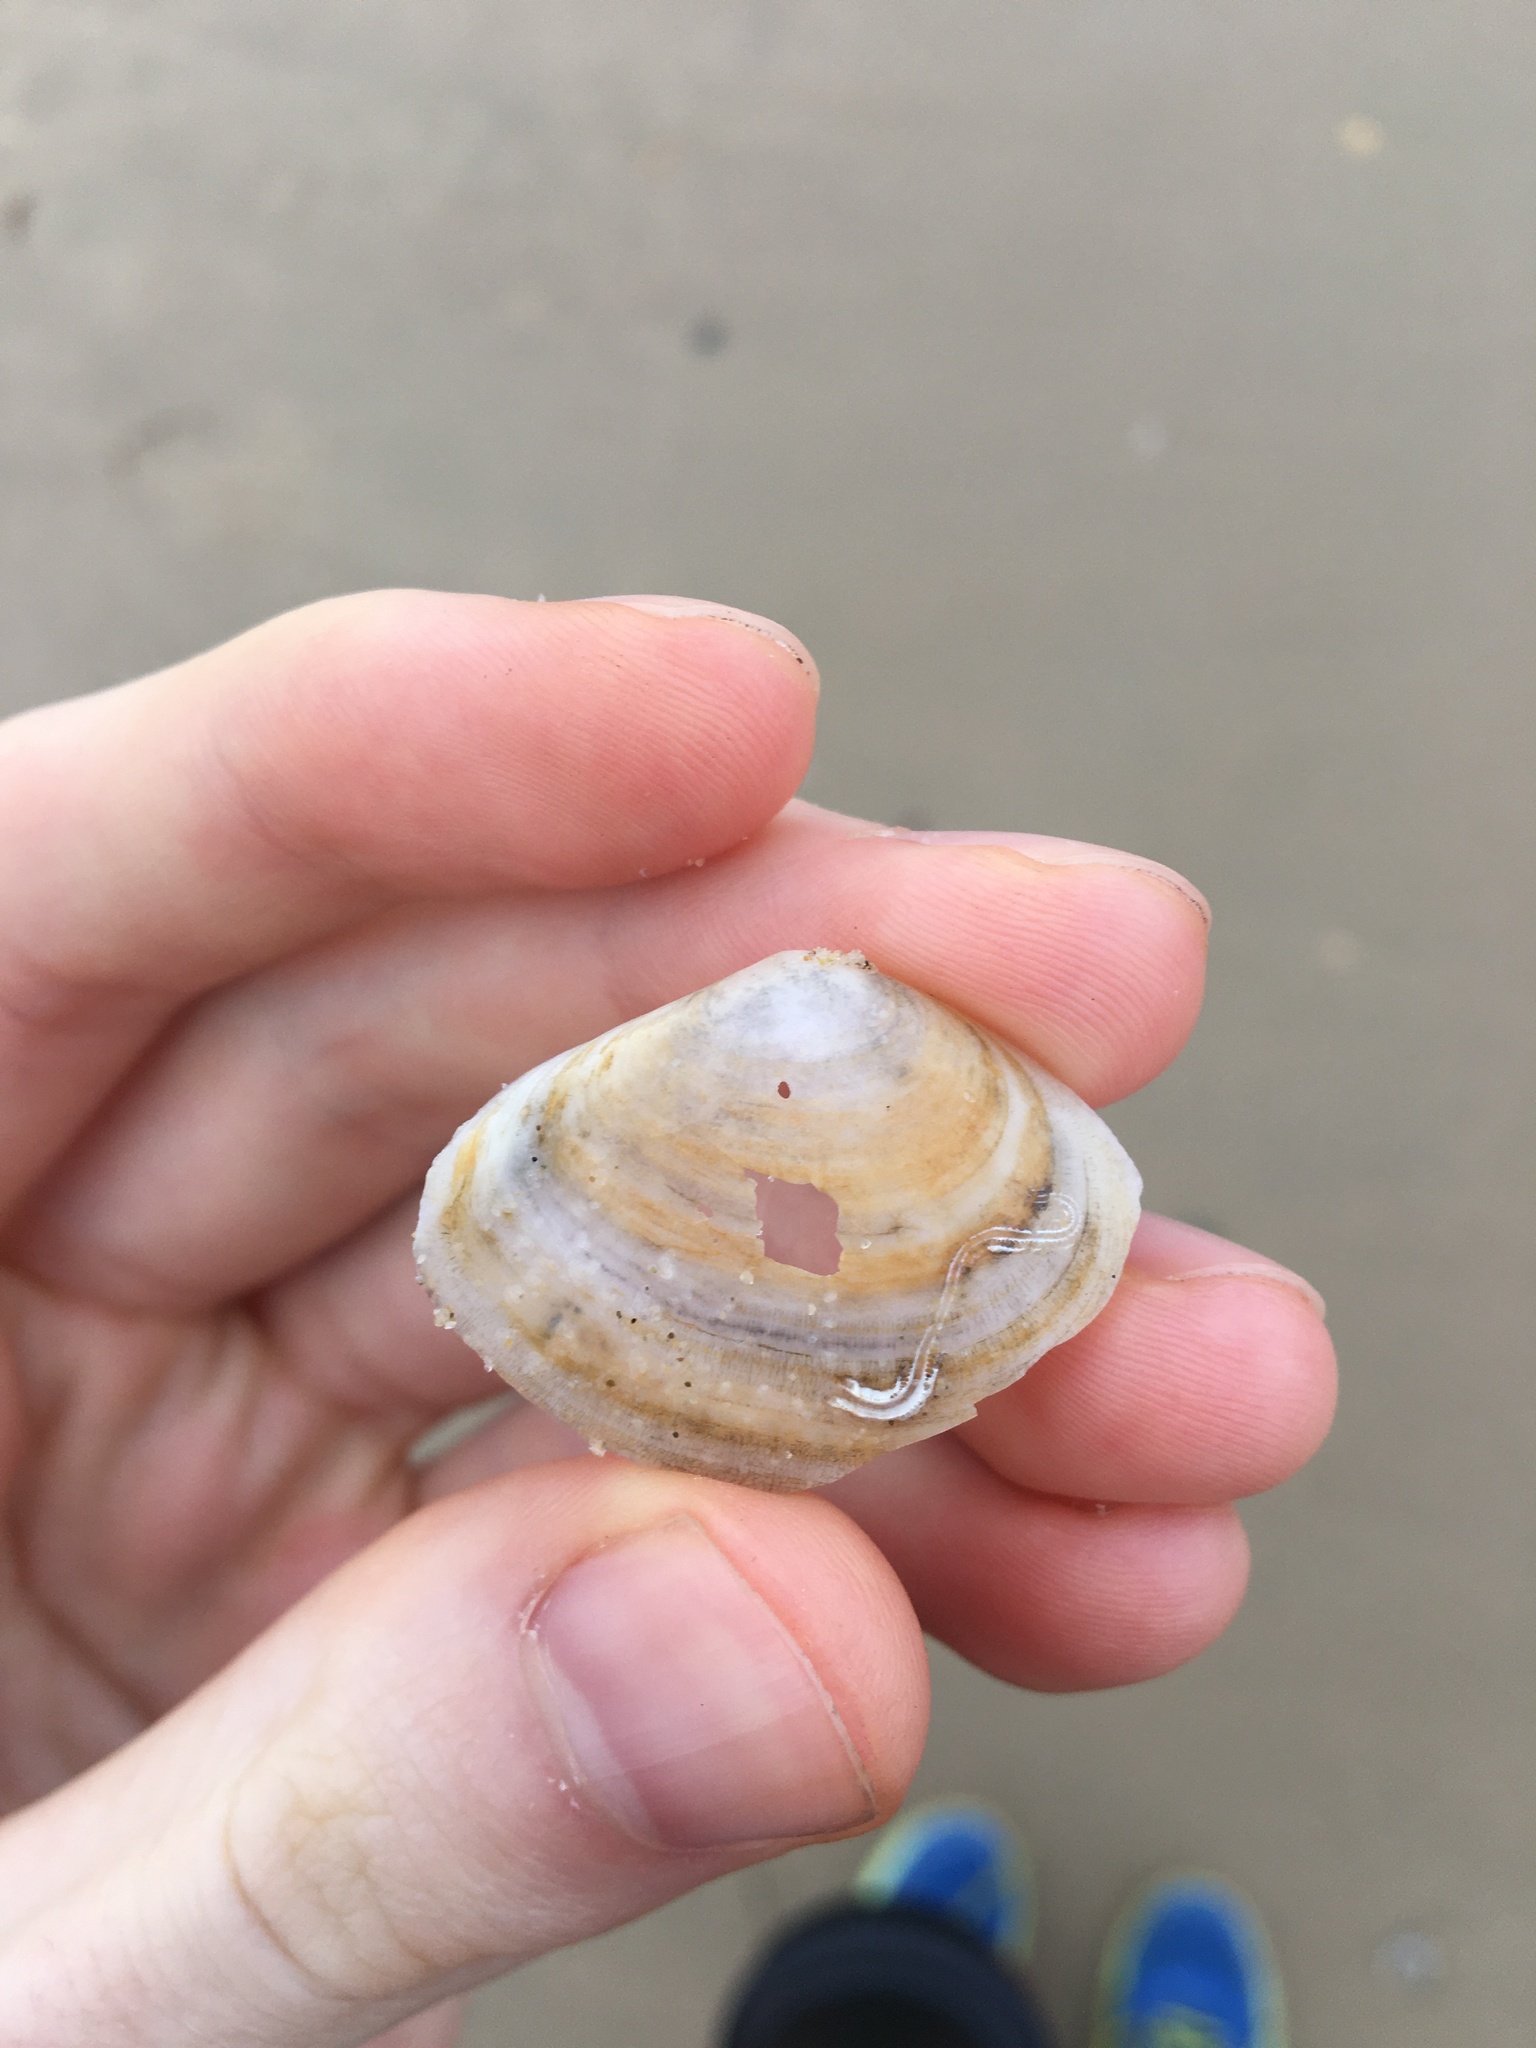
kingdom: Animalia
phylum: Mollusca
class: Bivalvia
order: Cardiida
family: Tellinidae
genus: Macomona
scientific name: Macomona deltoidalis
